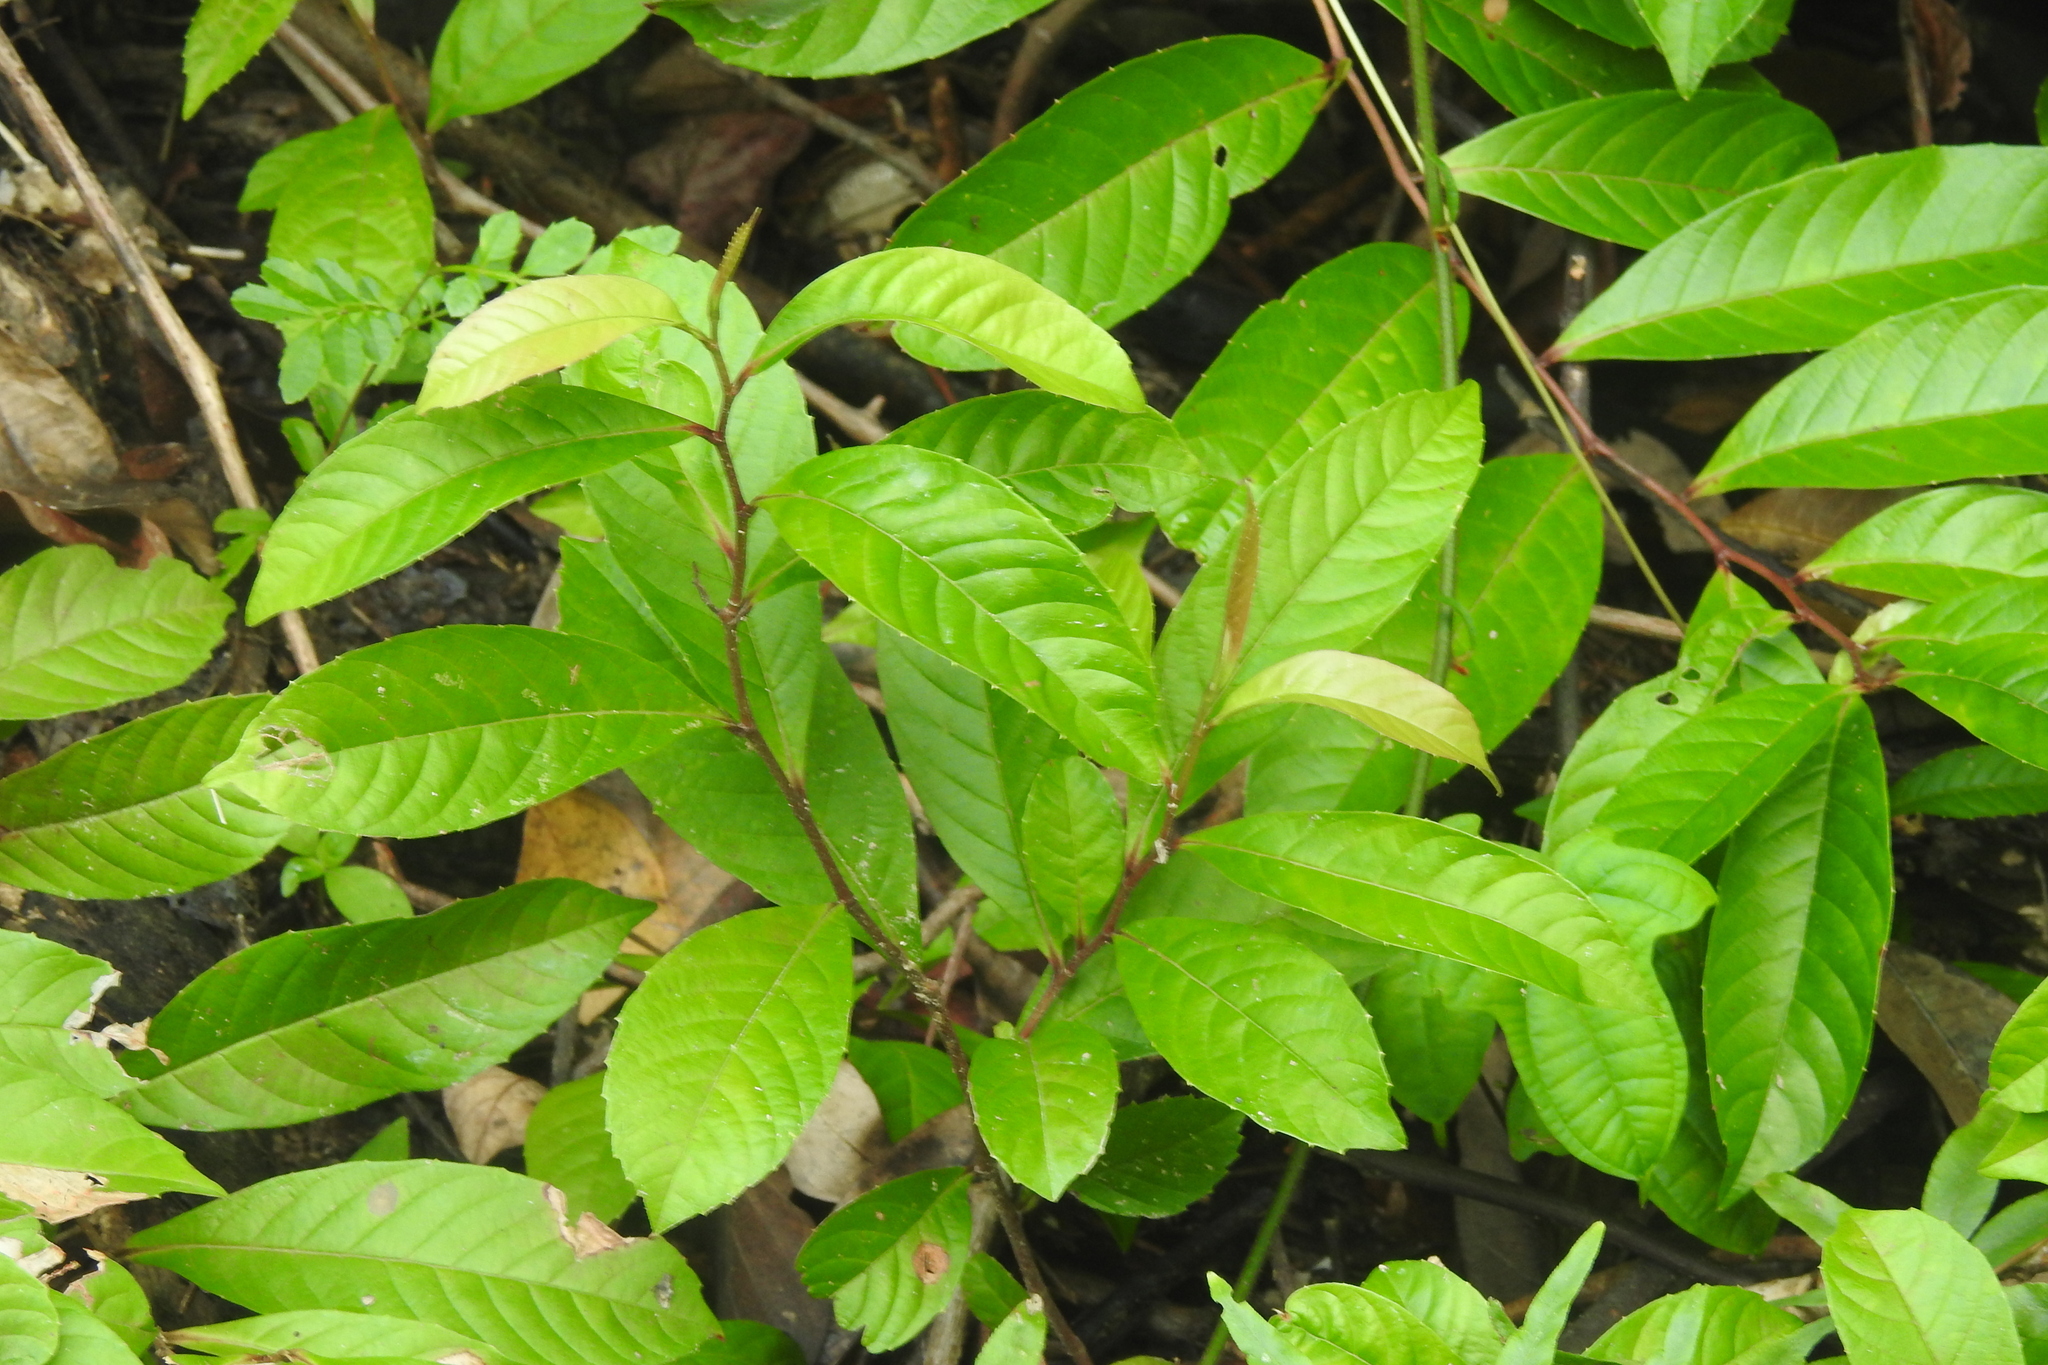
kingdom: Plantae
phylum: Tracheophyta
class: Magnoliopsida
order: Dilleniales
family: Dilleniaceae
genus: Tetracera
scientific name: Tetracera indica
